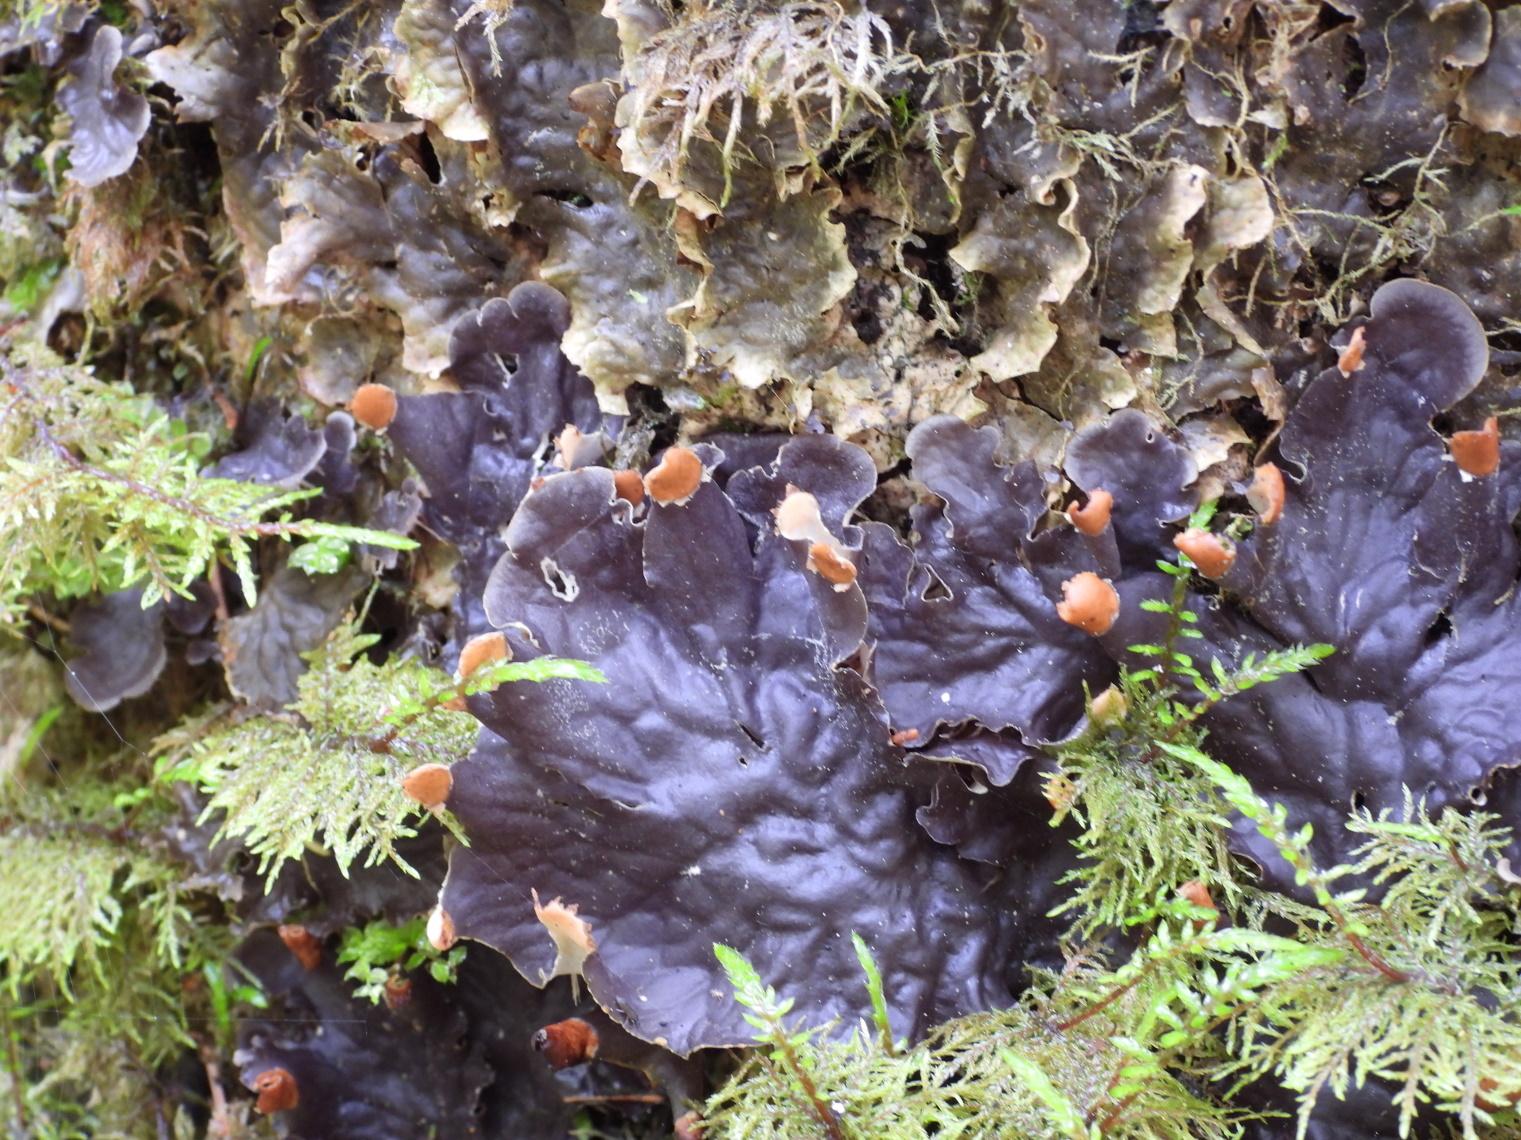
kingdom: Fungi
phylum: Ascomycota
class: Lecanoromycetes
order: Peltigerales
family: Peltigeraceae
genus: Peltigera
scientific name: Peltigera praetextata
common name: Scaly dog-lichen
